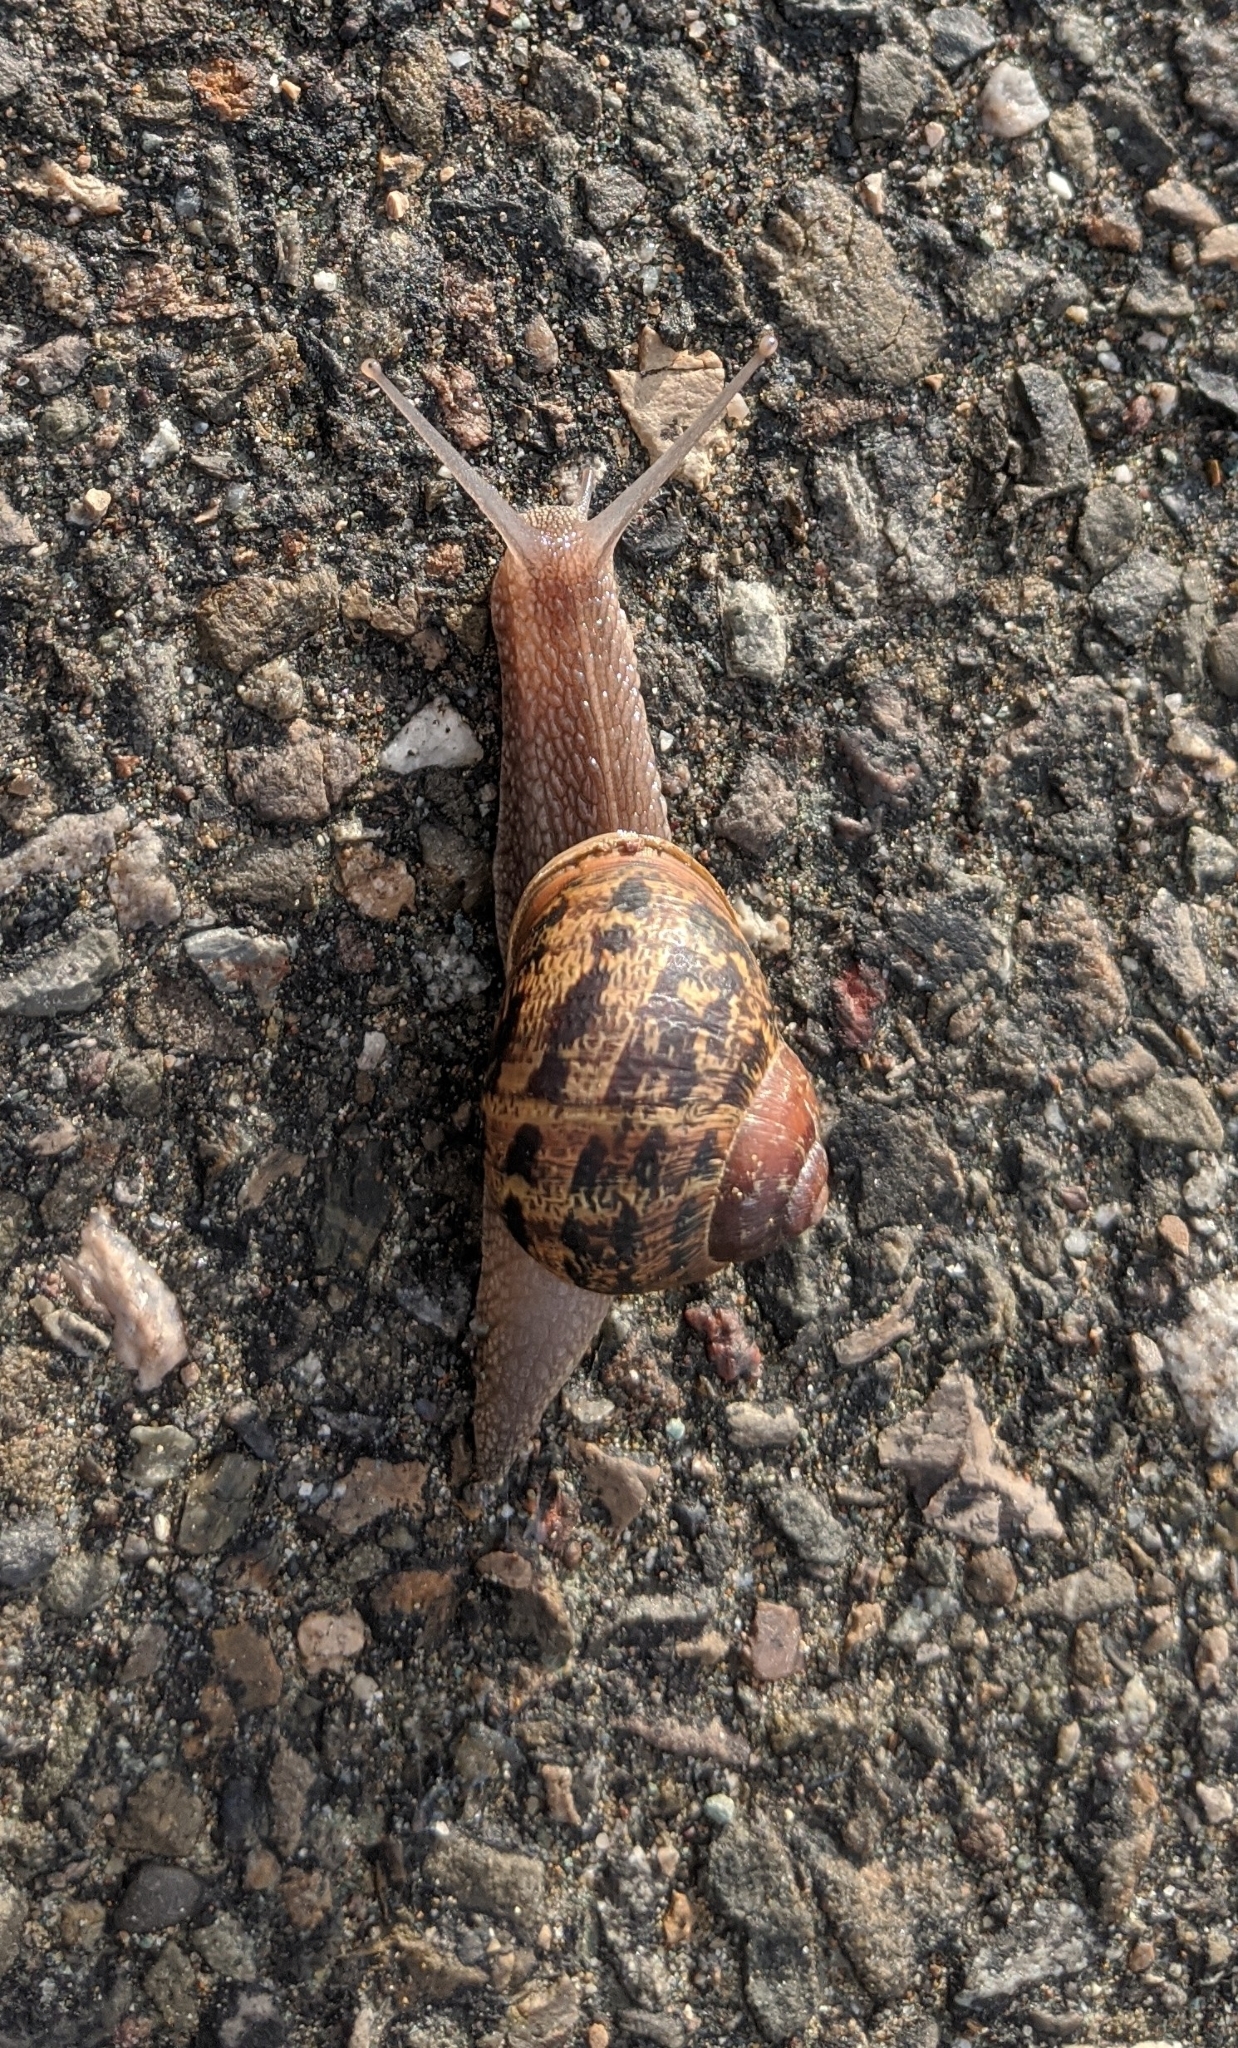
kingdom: Animalia
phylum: Mollusca
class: Gastropoda
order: Stylommatophora
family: Helicidae
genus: Cornu
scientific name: Cornu aspersum
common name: Brown garden snail
